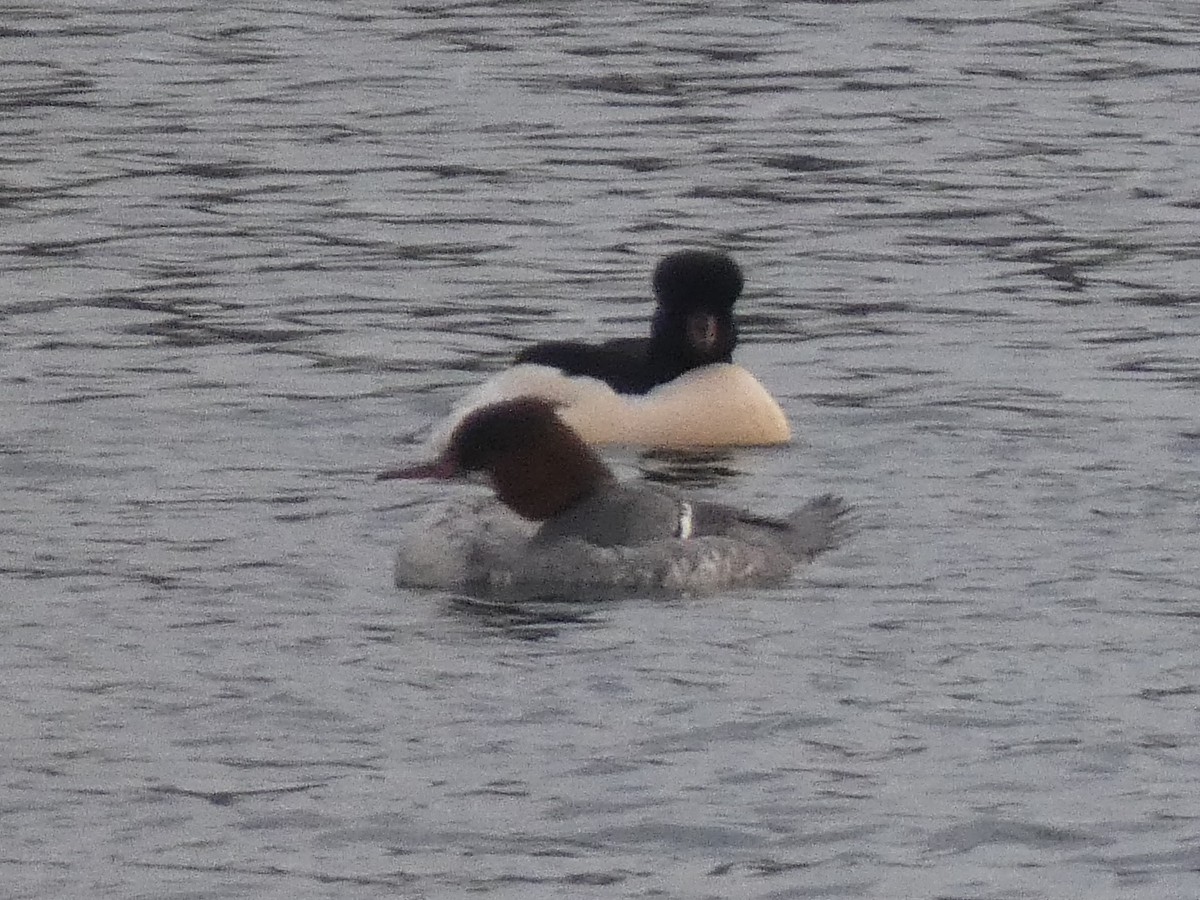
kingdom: Animalia
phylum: Chordata
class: Aves
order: Anseriformes
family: Anatidae
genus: Mergus
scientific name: Mergus merganser
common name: Common merganser
